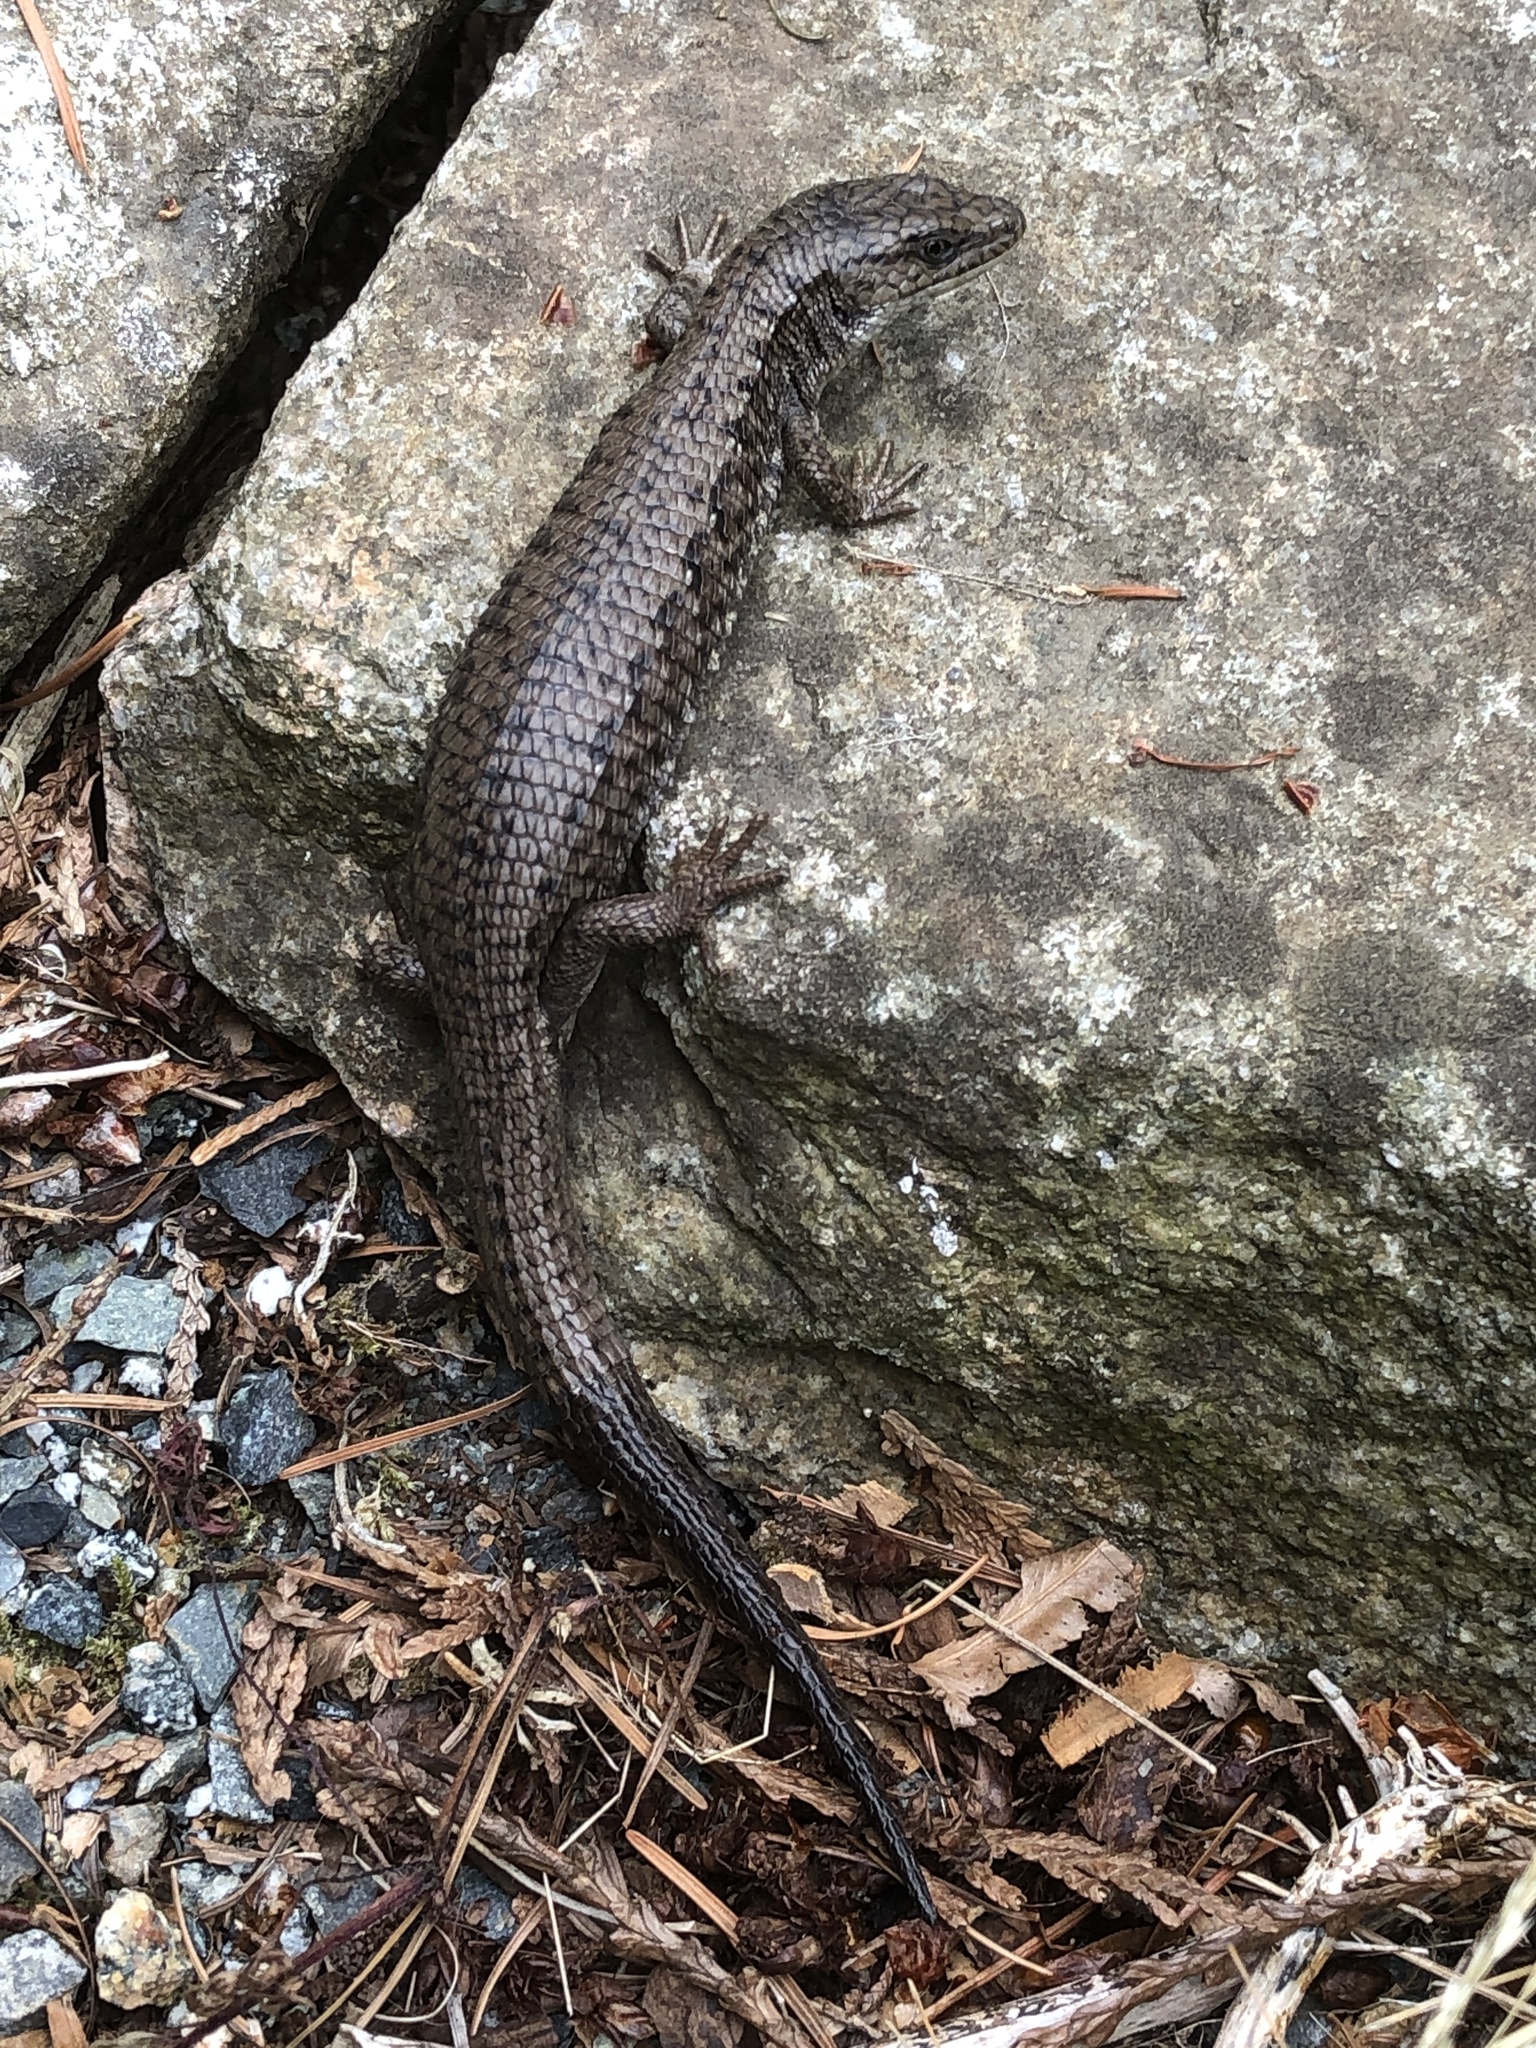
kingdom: Animalia
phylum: Chordata
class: Squamata
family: Anguidae
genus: Elgaria
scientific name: Elgaria coerulea
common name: Northern alligator lizard
